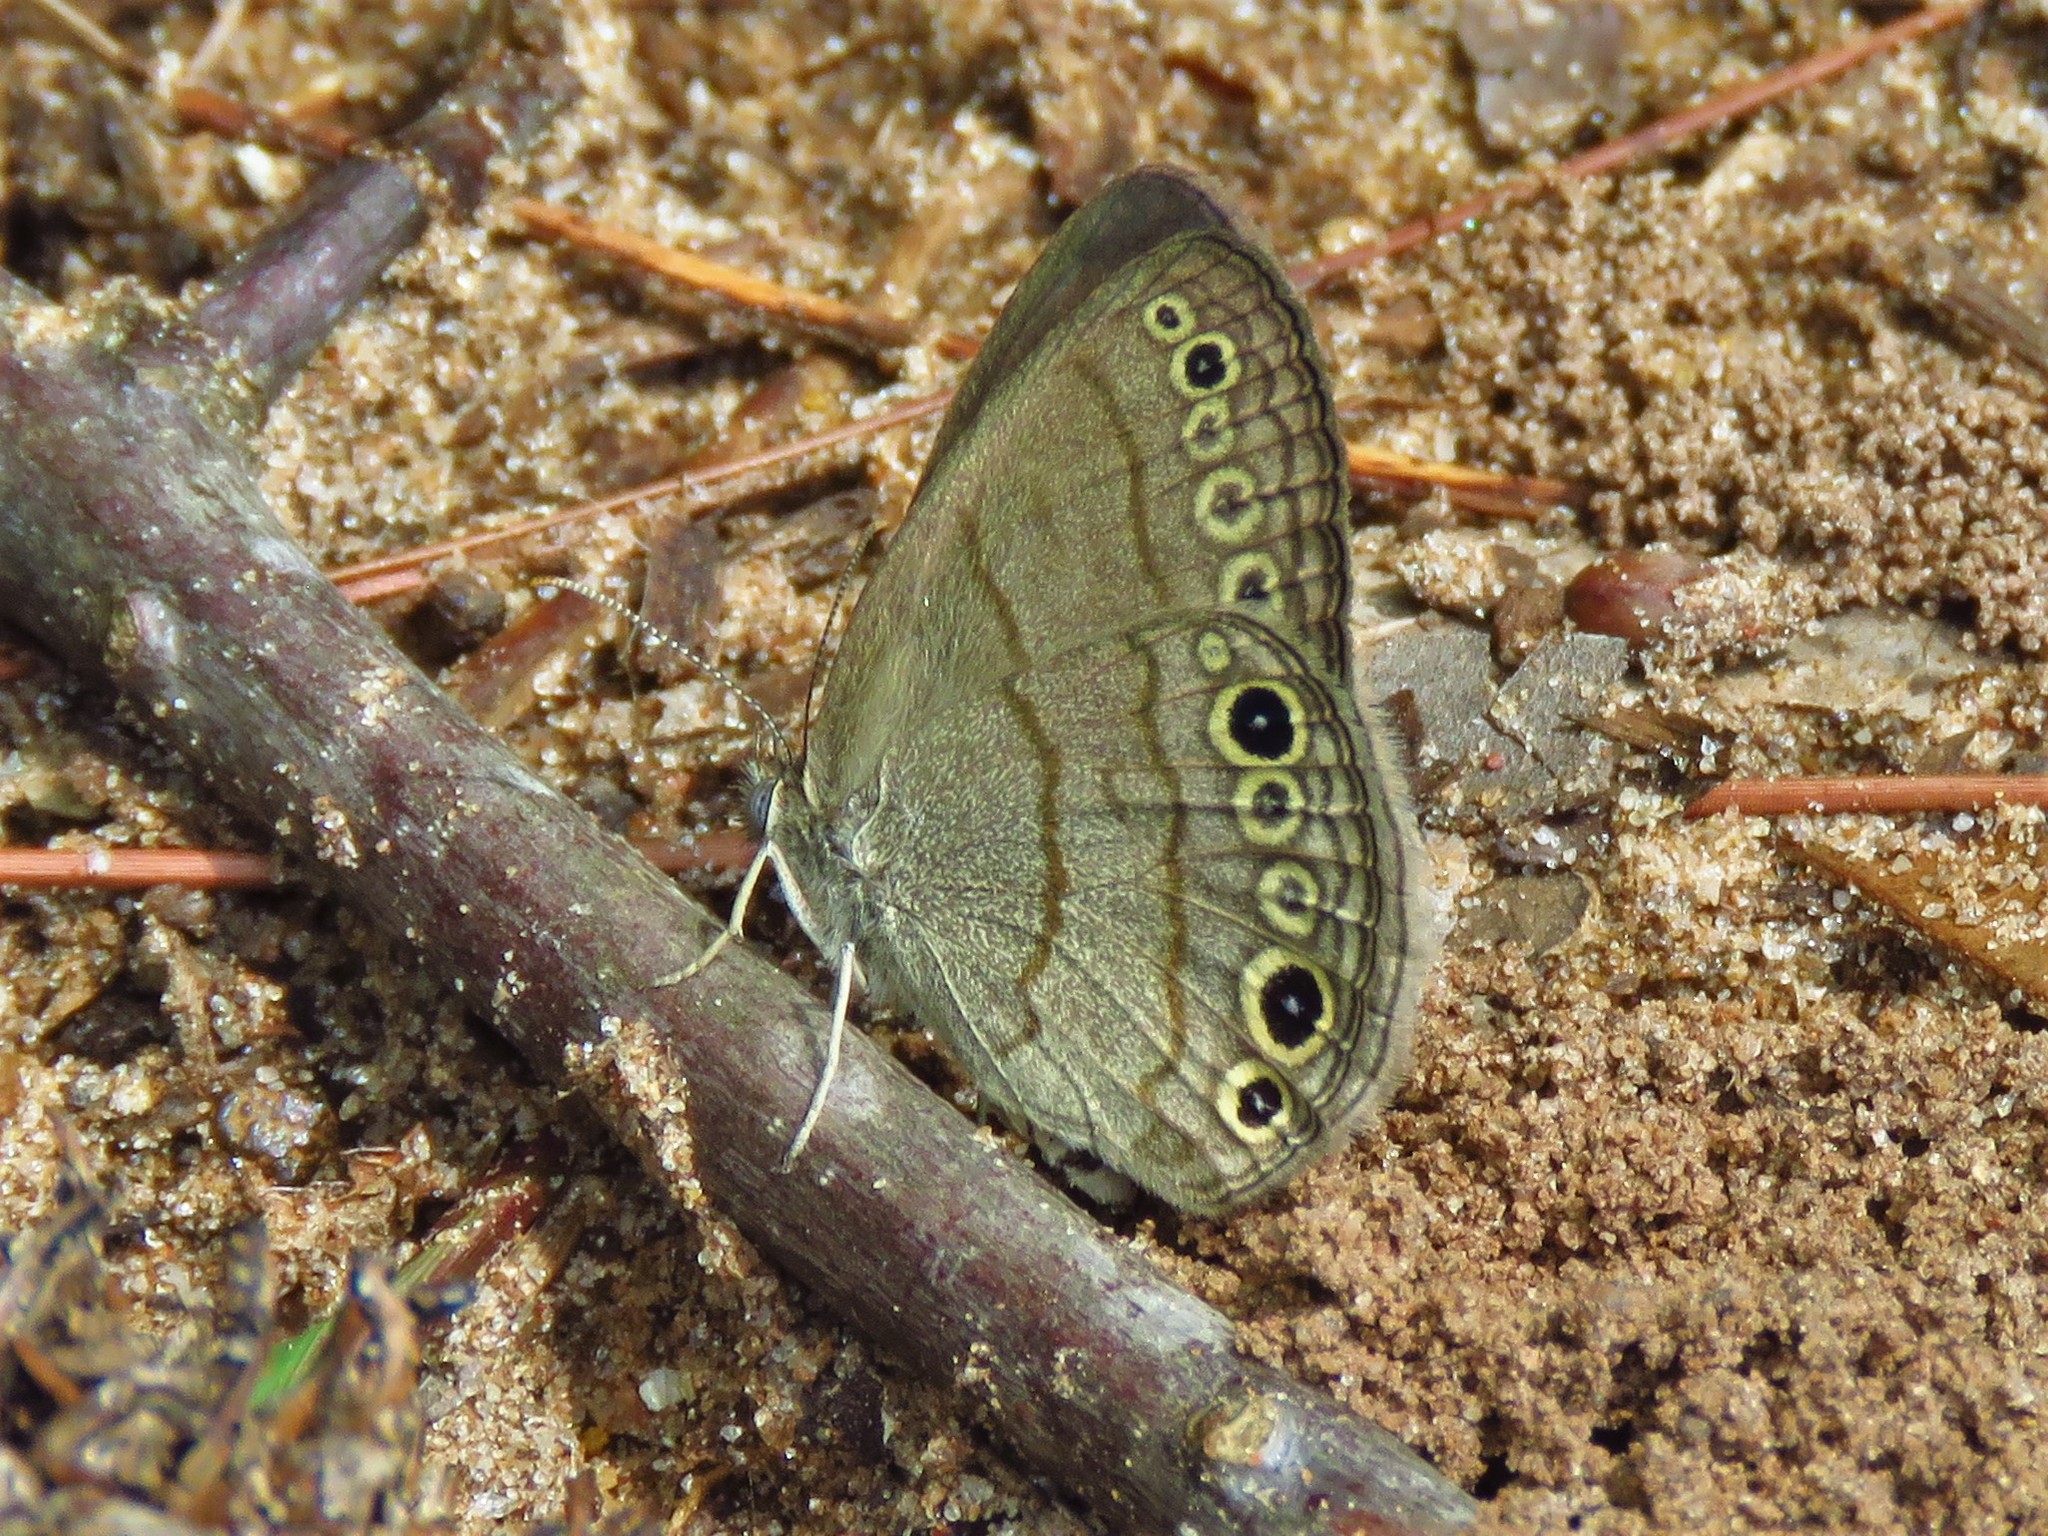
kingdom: Animalia
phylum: Arthropoda
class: Insecta
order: Lepidoptera
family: Nymphalidae
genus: Hermeuptychia
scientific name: Hermeuptychia hermes
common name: Hermes satyr
